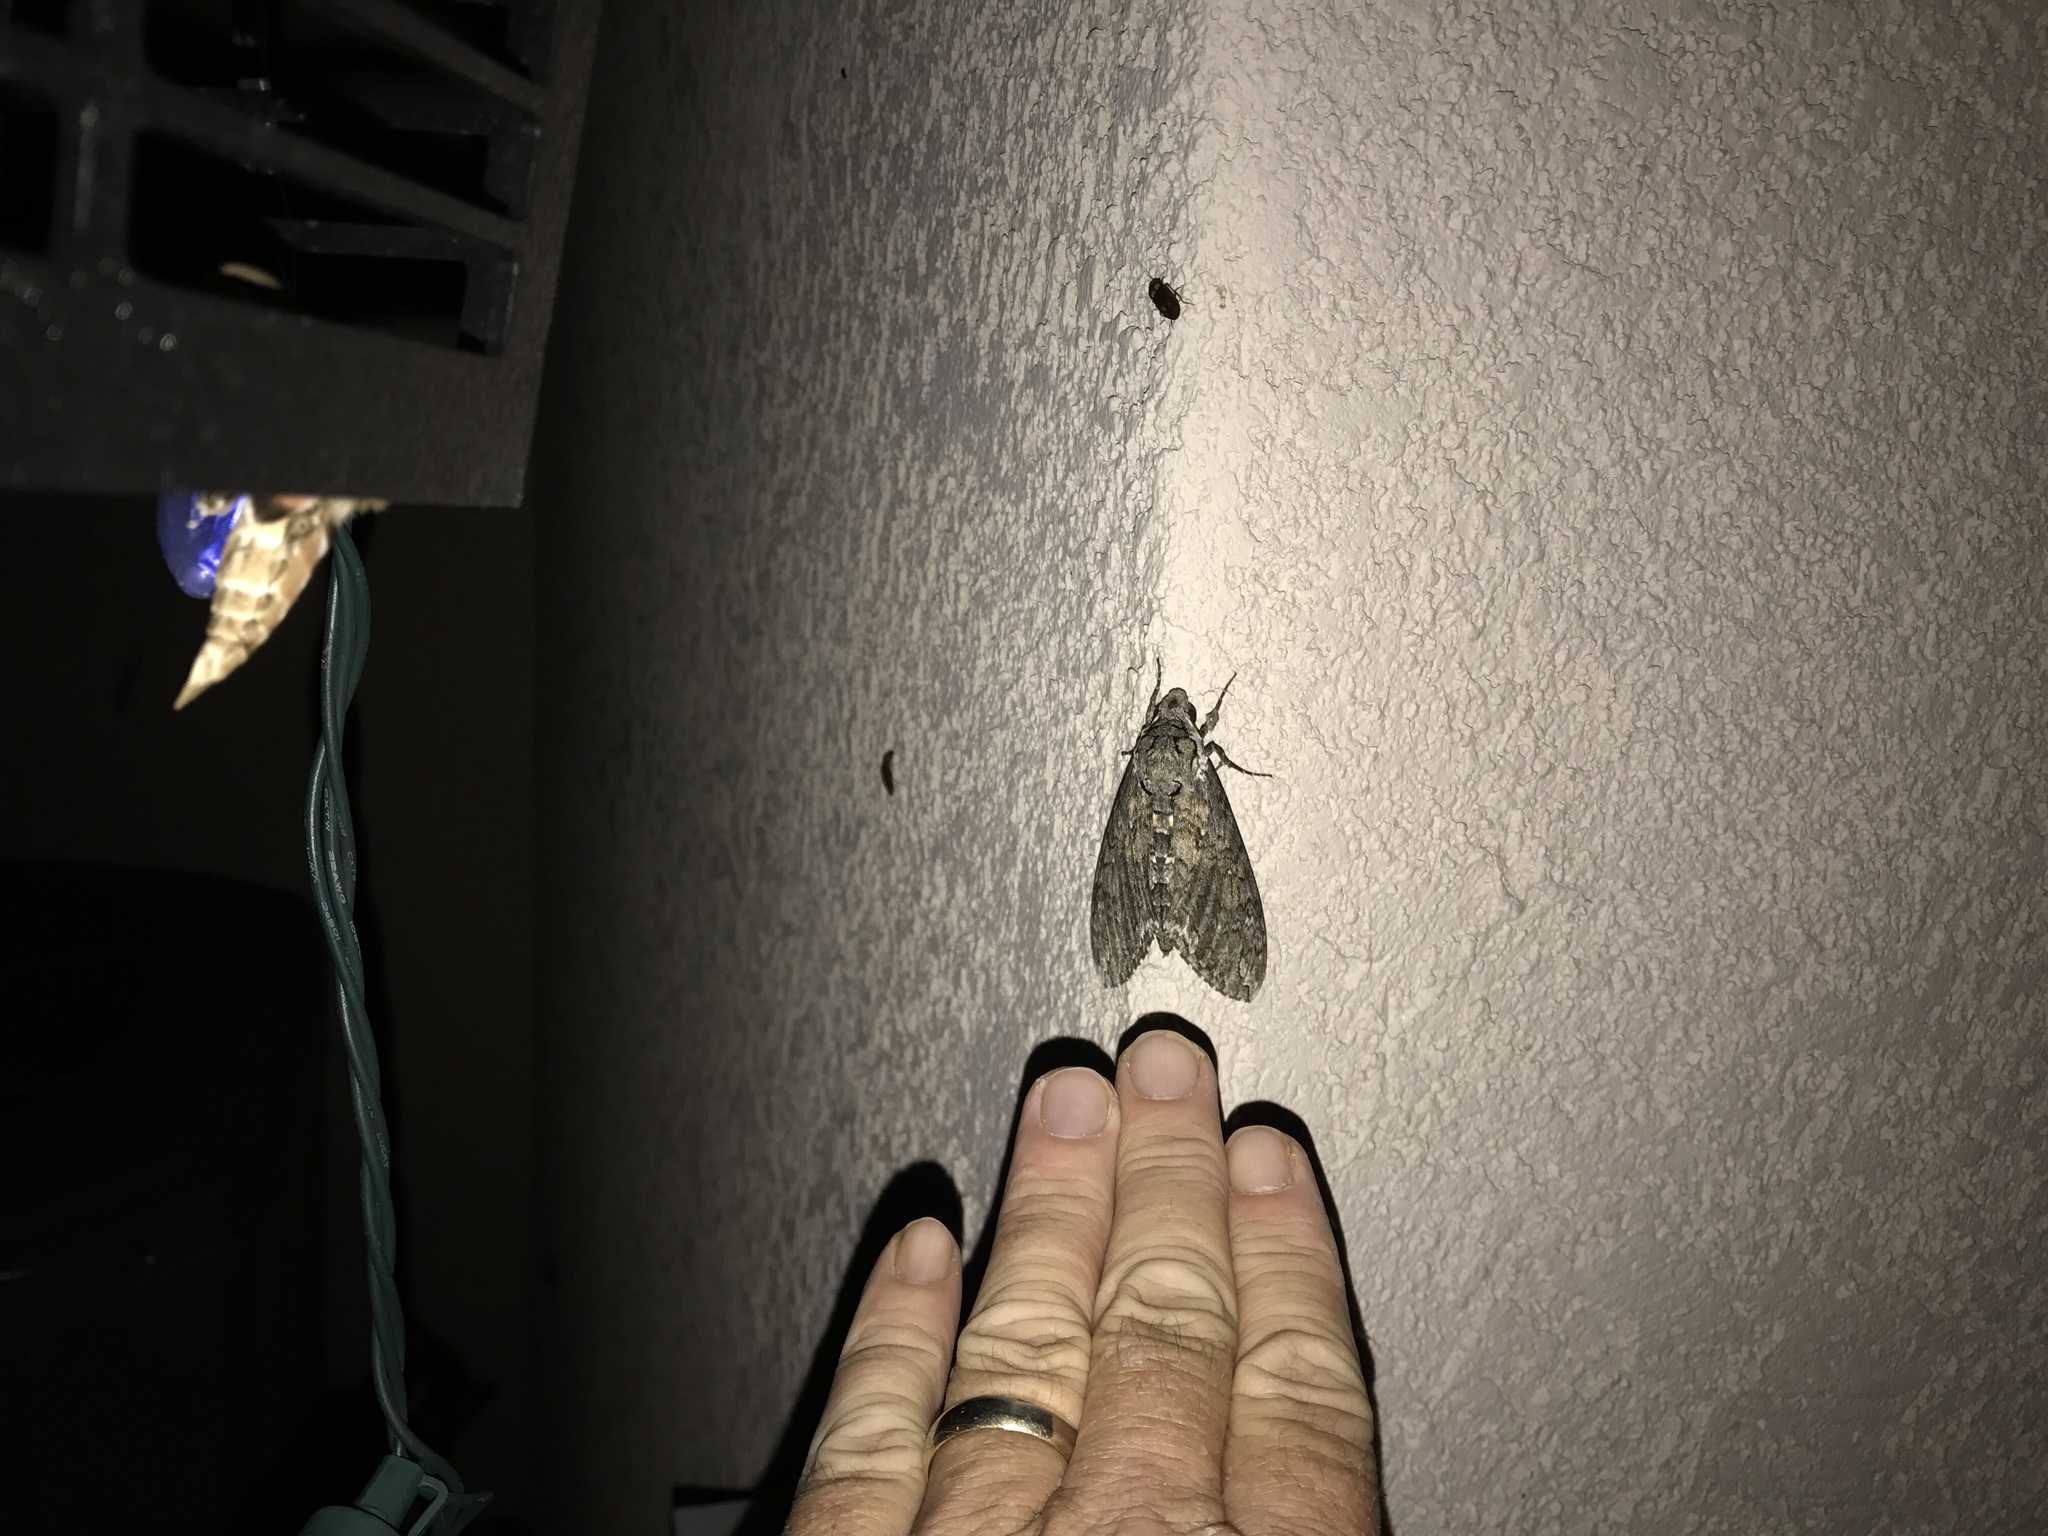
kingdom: Animalia
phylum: Arthropoda
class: Insecta
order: Lepidoptera
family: Sphingidae
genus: Manduca
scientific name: Manduca sexta
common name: Carolina sphinx
